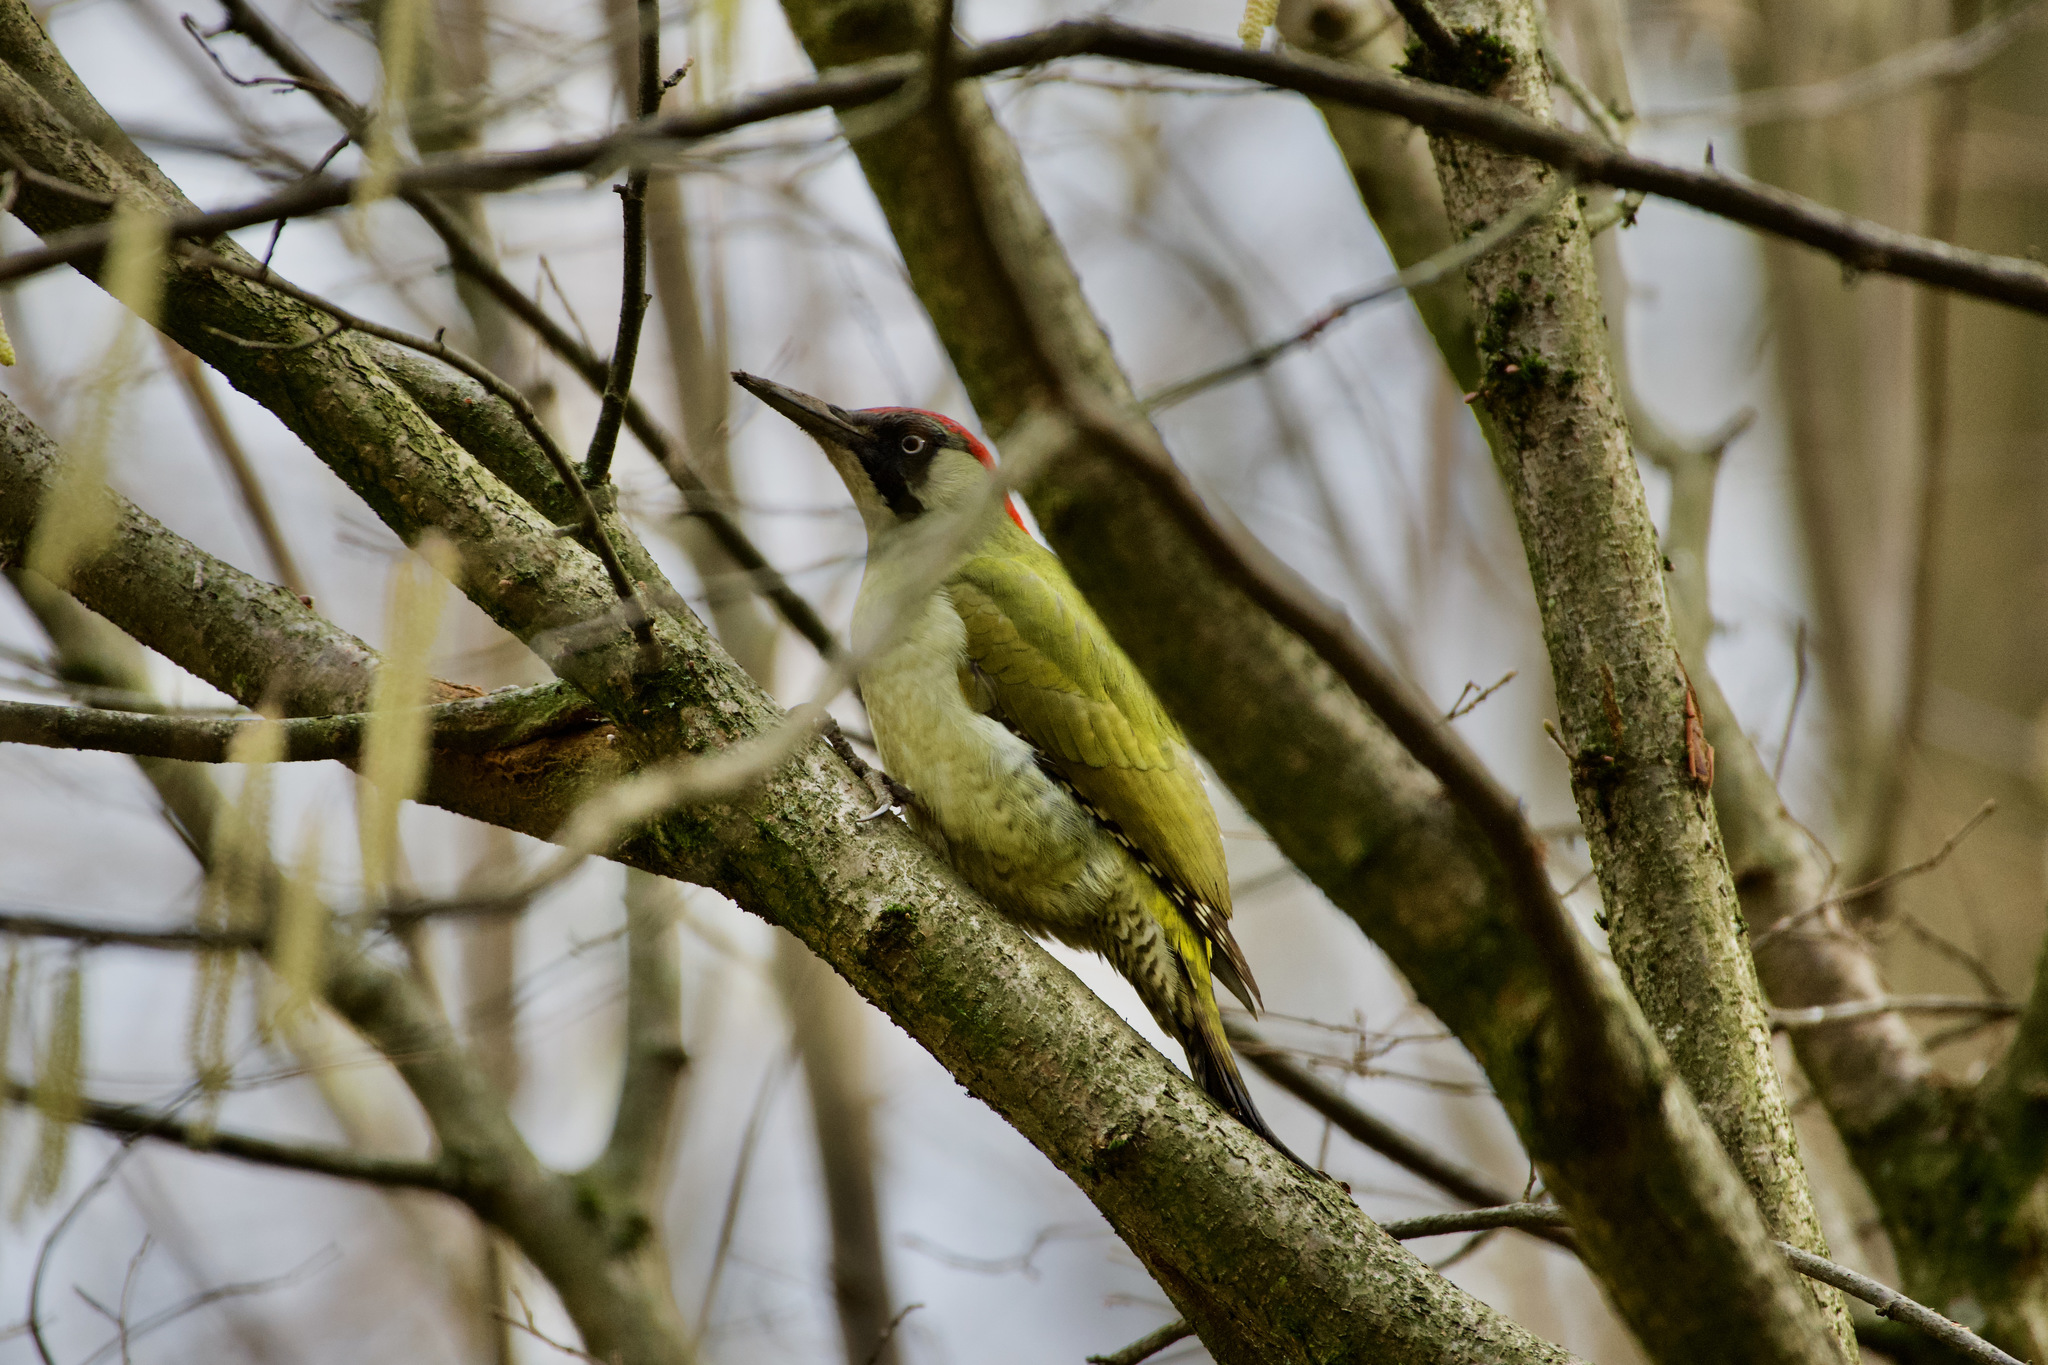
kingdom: Animalia
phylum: Chordata
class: Aves
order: Piciformes
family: Picidae
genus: Picus
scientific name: Picus viridis
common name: European green woodpecker
